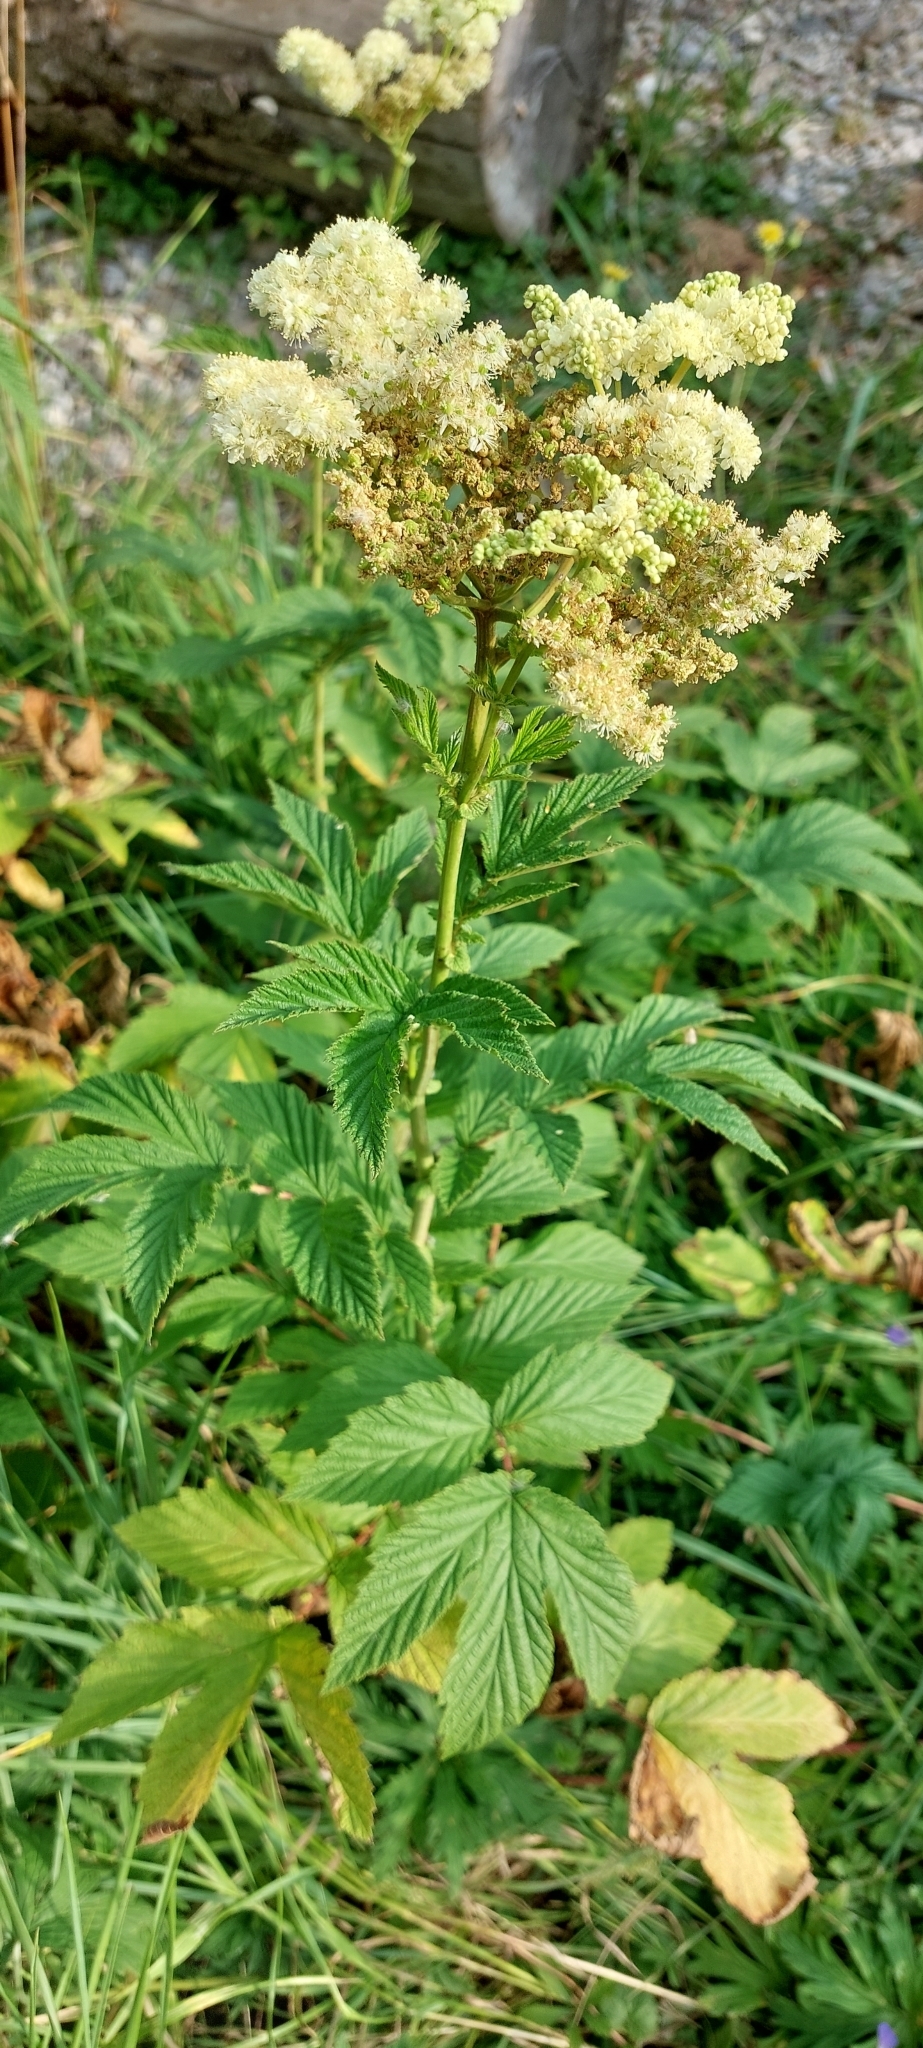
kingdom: Plantae
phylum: Tracheophyta
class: Magnoliopsida
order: Rosales
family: Rosaceae
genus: Filipendula
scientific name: Filipendula ulmaria
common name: Meadowsweet
